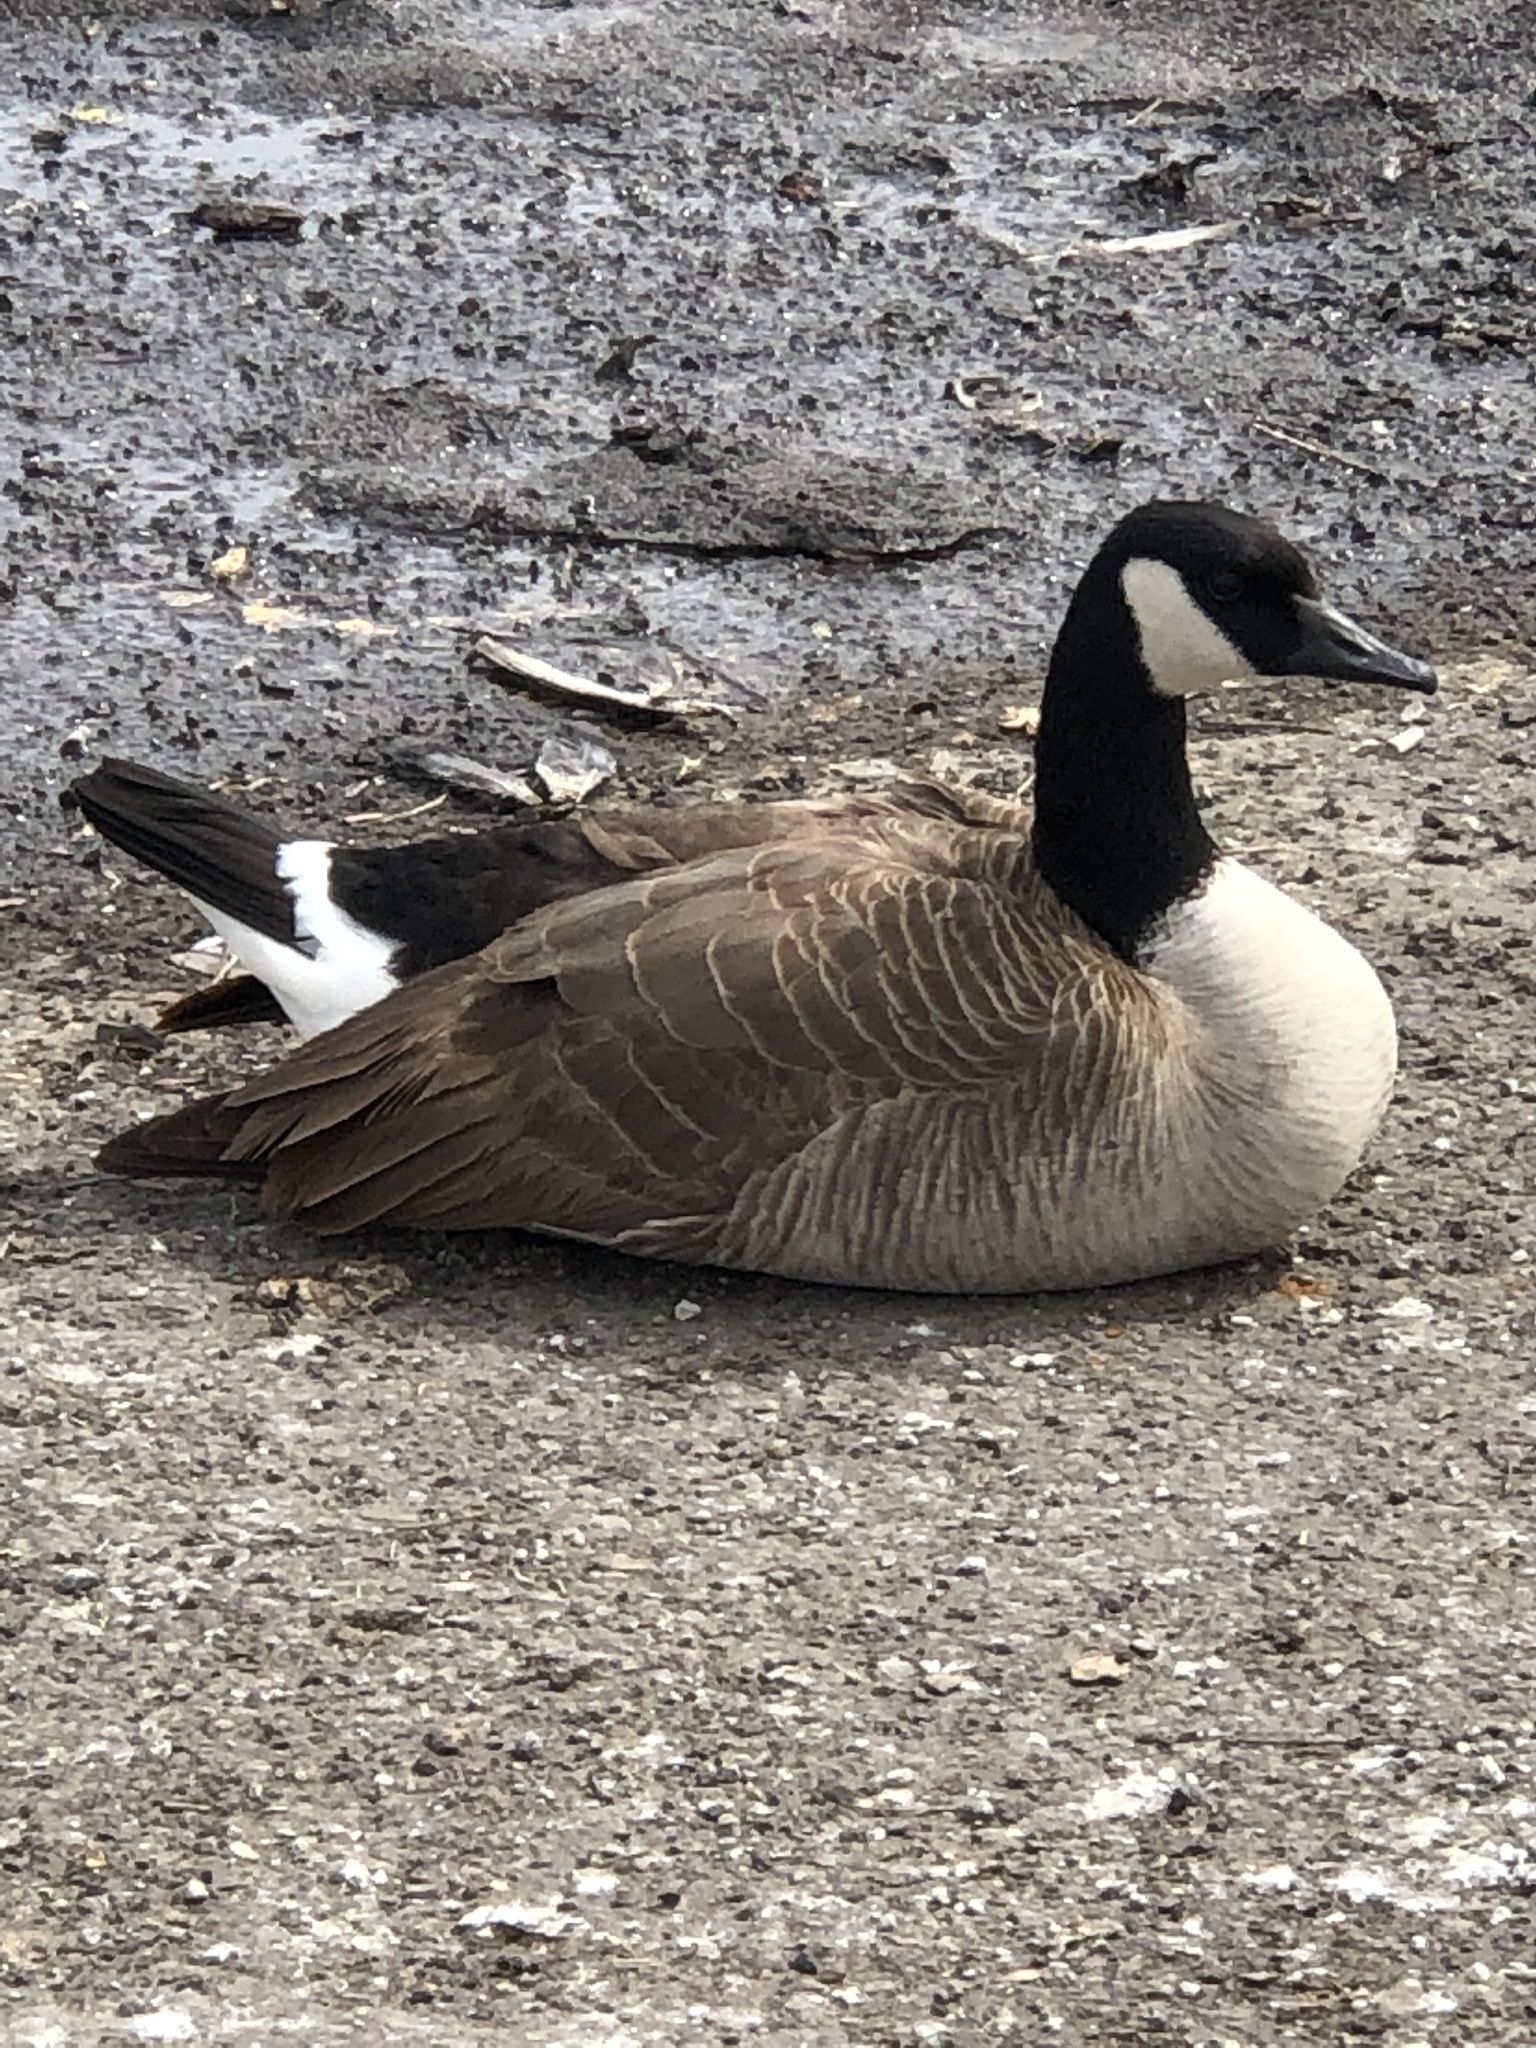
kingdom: Animalia
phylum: Chordata
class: Aves
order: Anseriformes
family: Anatidae
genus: Branta
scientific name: Branta canadensis
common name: Canada goose
